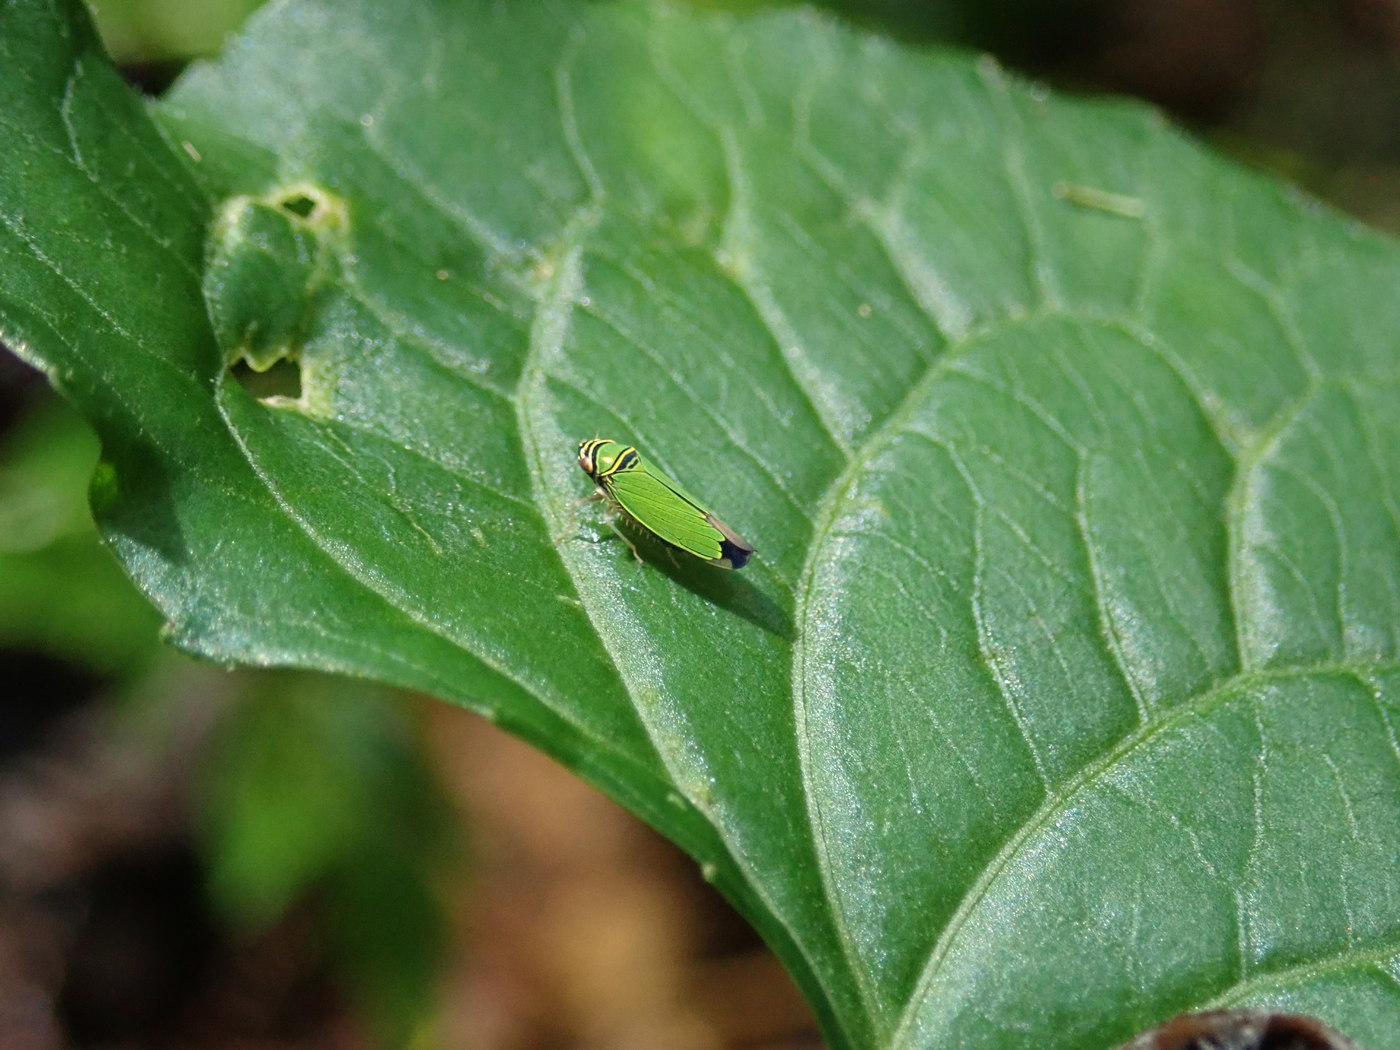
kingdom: Animalia
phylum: Arthropoda
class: Insecta
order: Hemiptera
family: Cicadellidae
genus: Tylozygus
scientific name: Tylozygus geometricus
